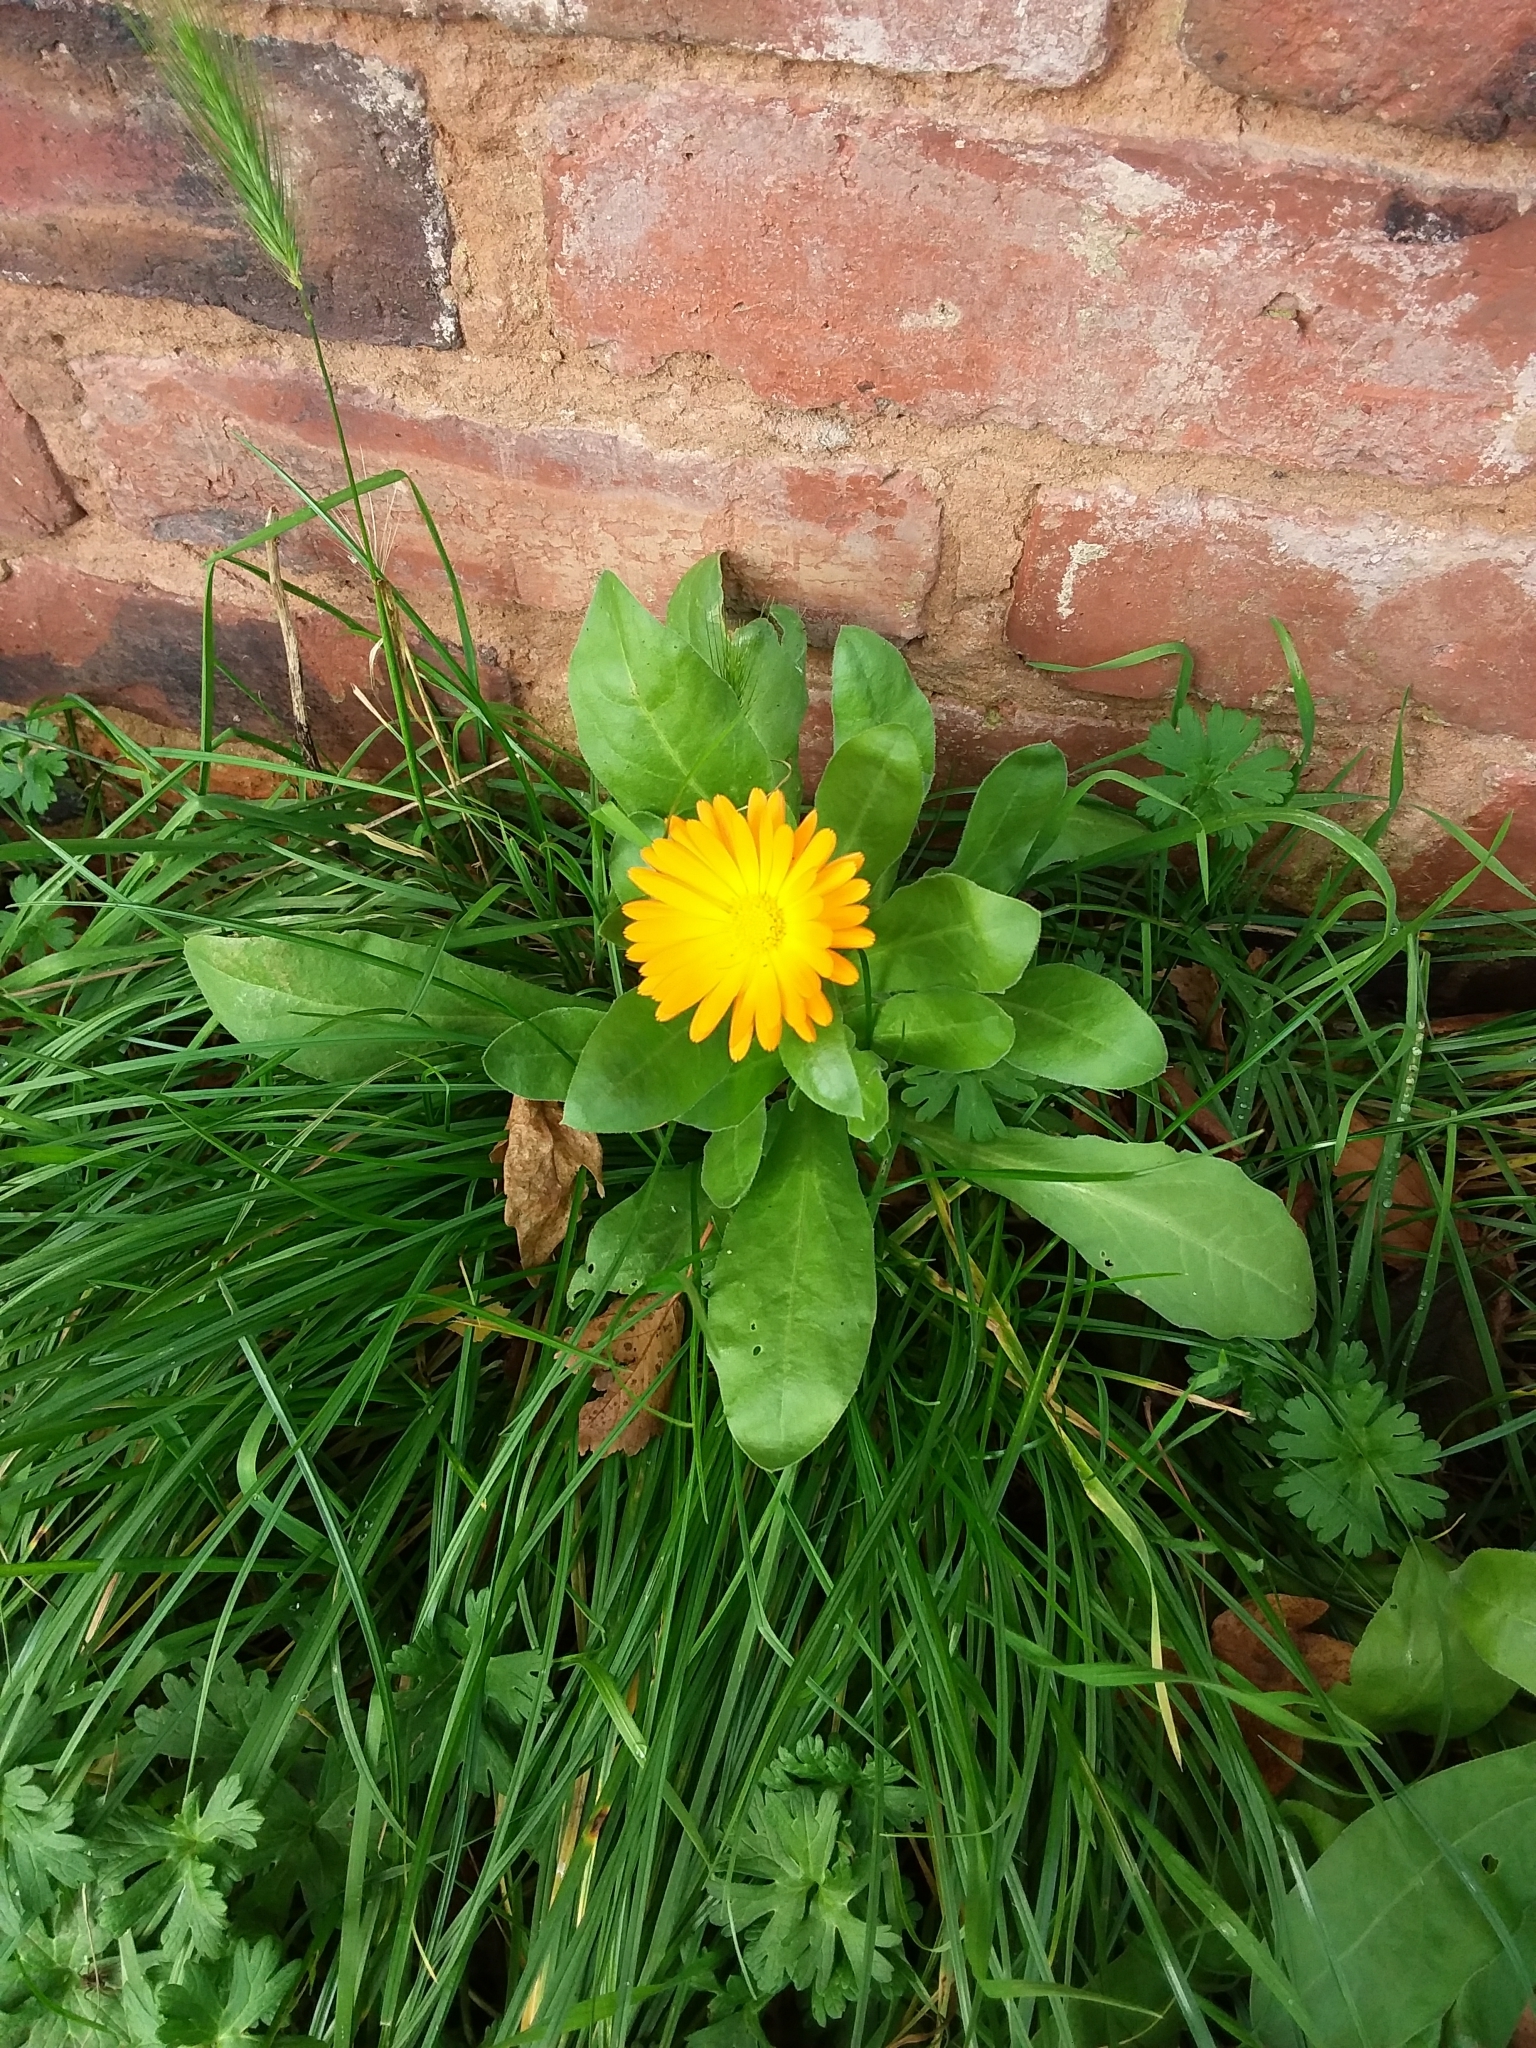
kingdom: Plantae
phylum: Tracheophyta
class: Magnoliopsida
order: Asterales
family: Asteraceae
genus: Calendula
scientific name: Calendula officinalis
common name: Pot marigold
